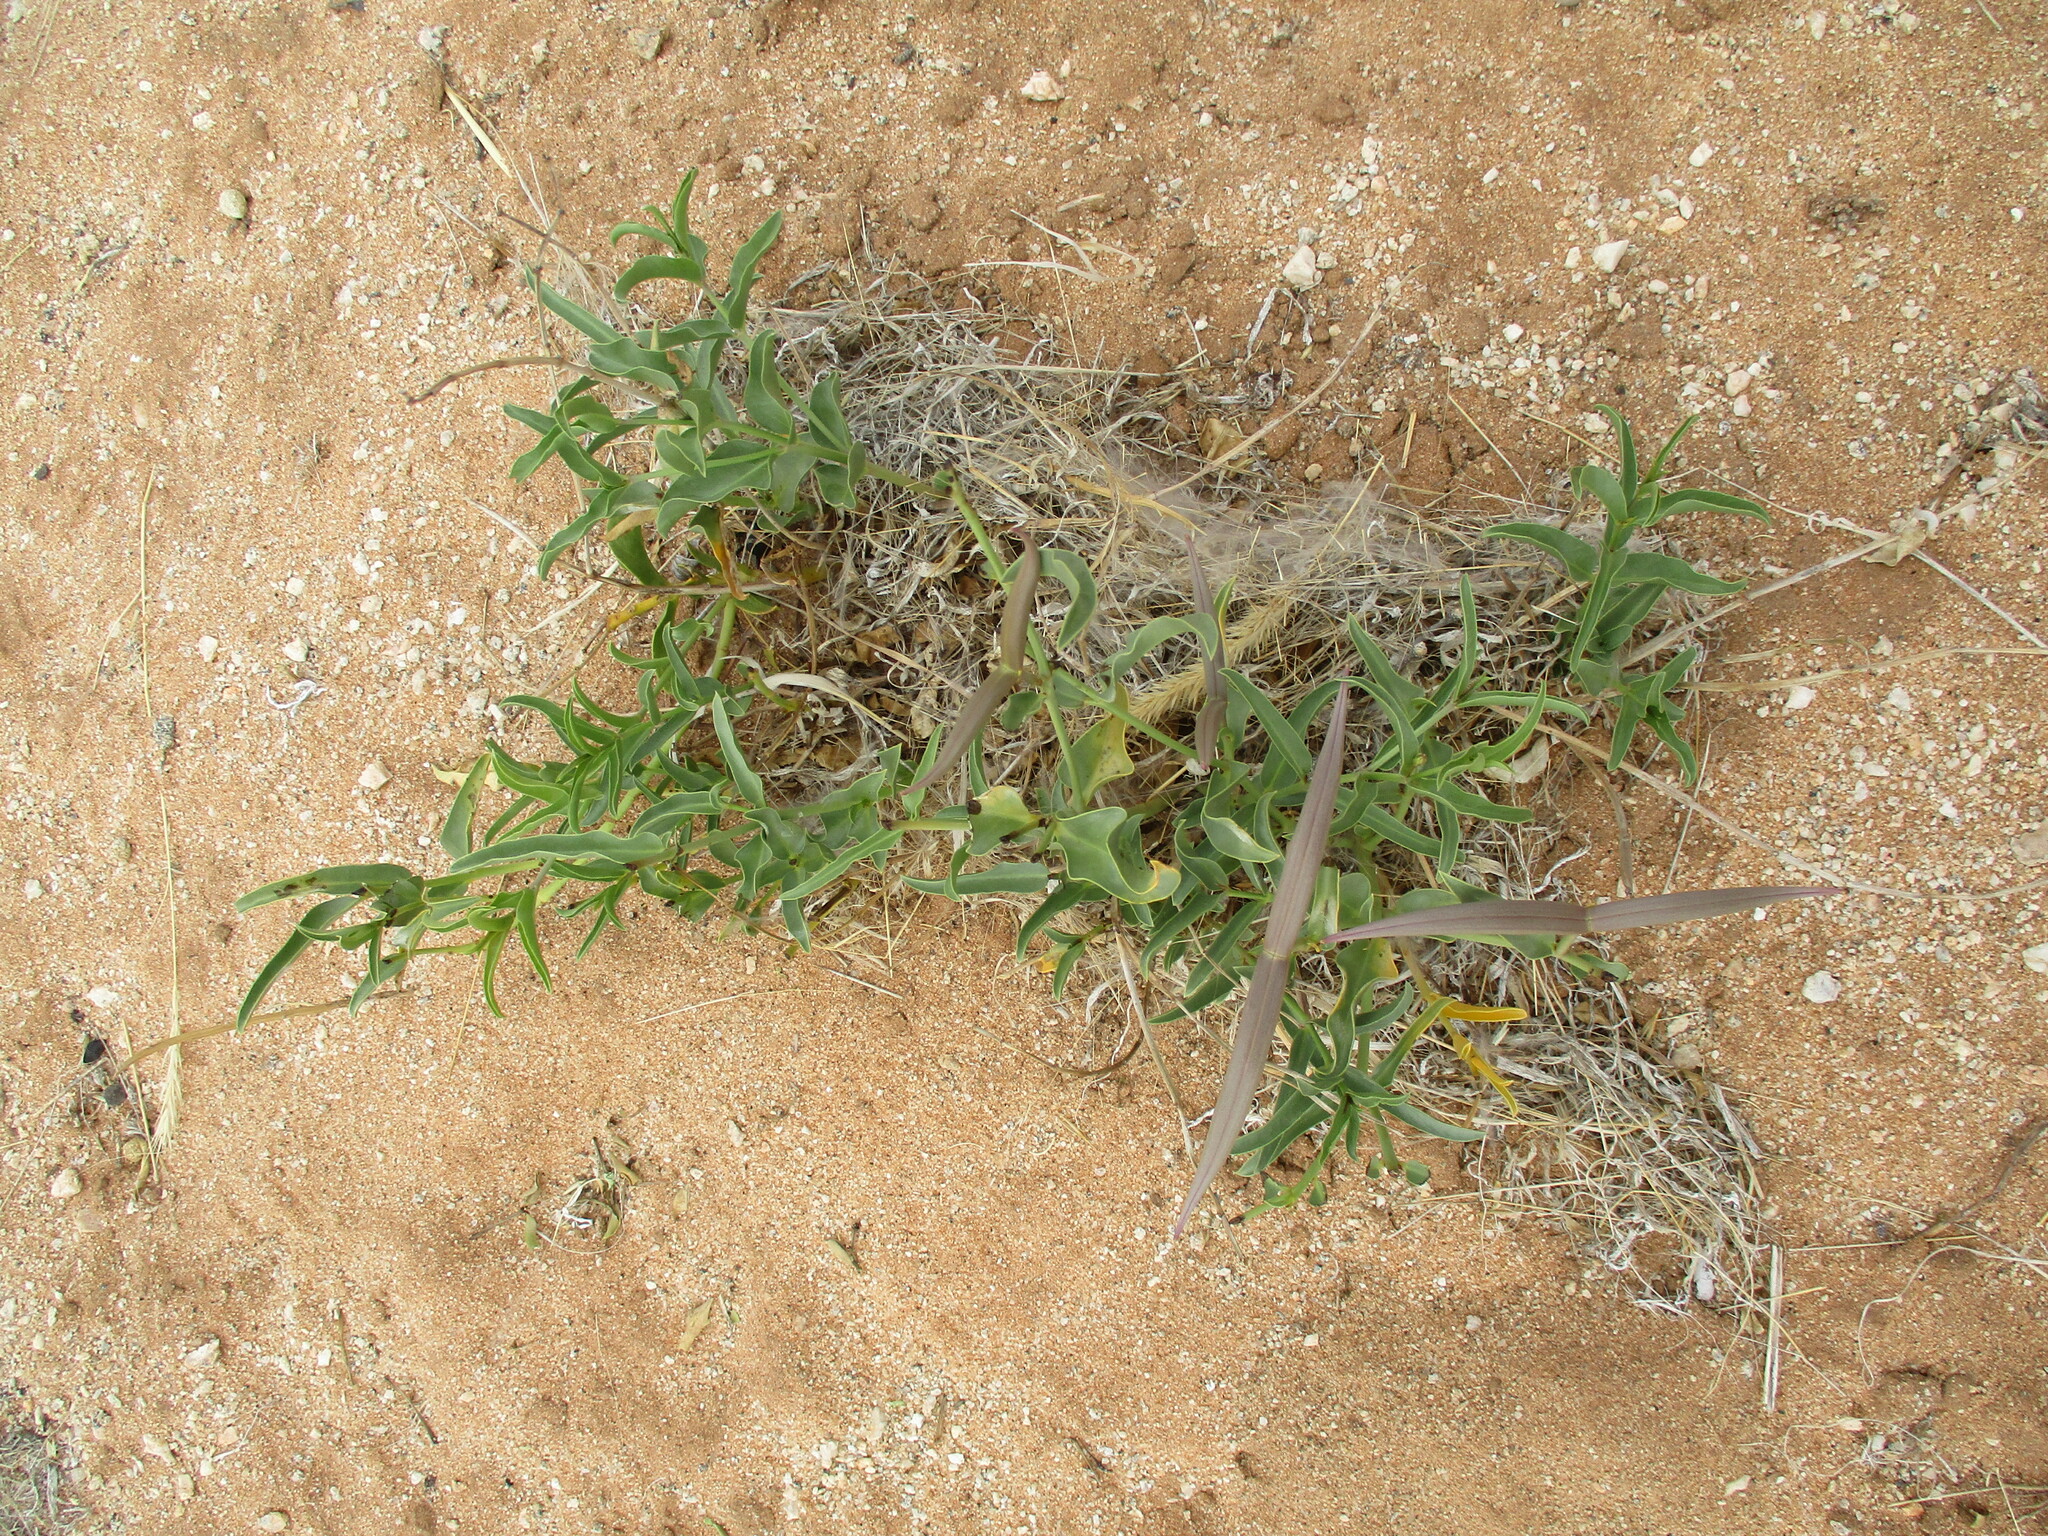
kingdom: Plantae
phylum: Tracheophyta
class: Magnoliopsida
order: Gentianales
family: Apocynaceae
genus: Raphionacme
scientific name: Raphionacme haeneliae
